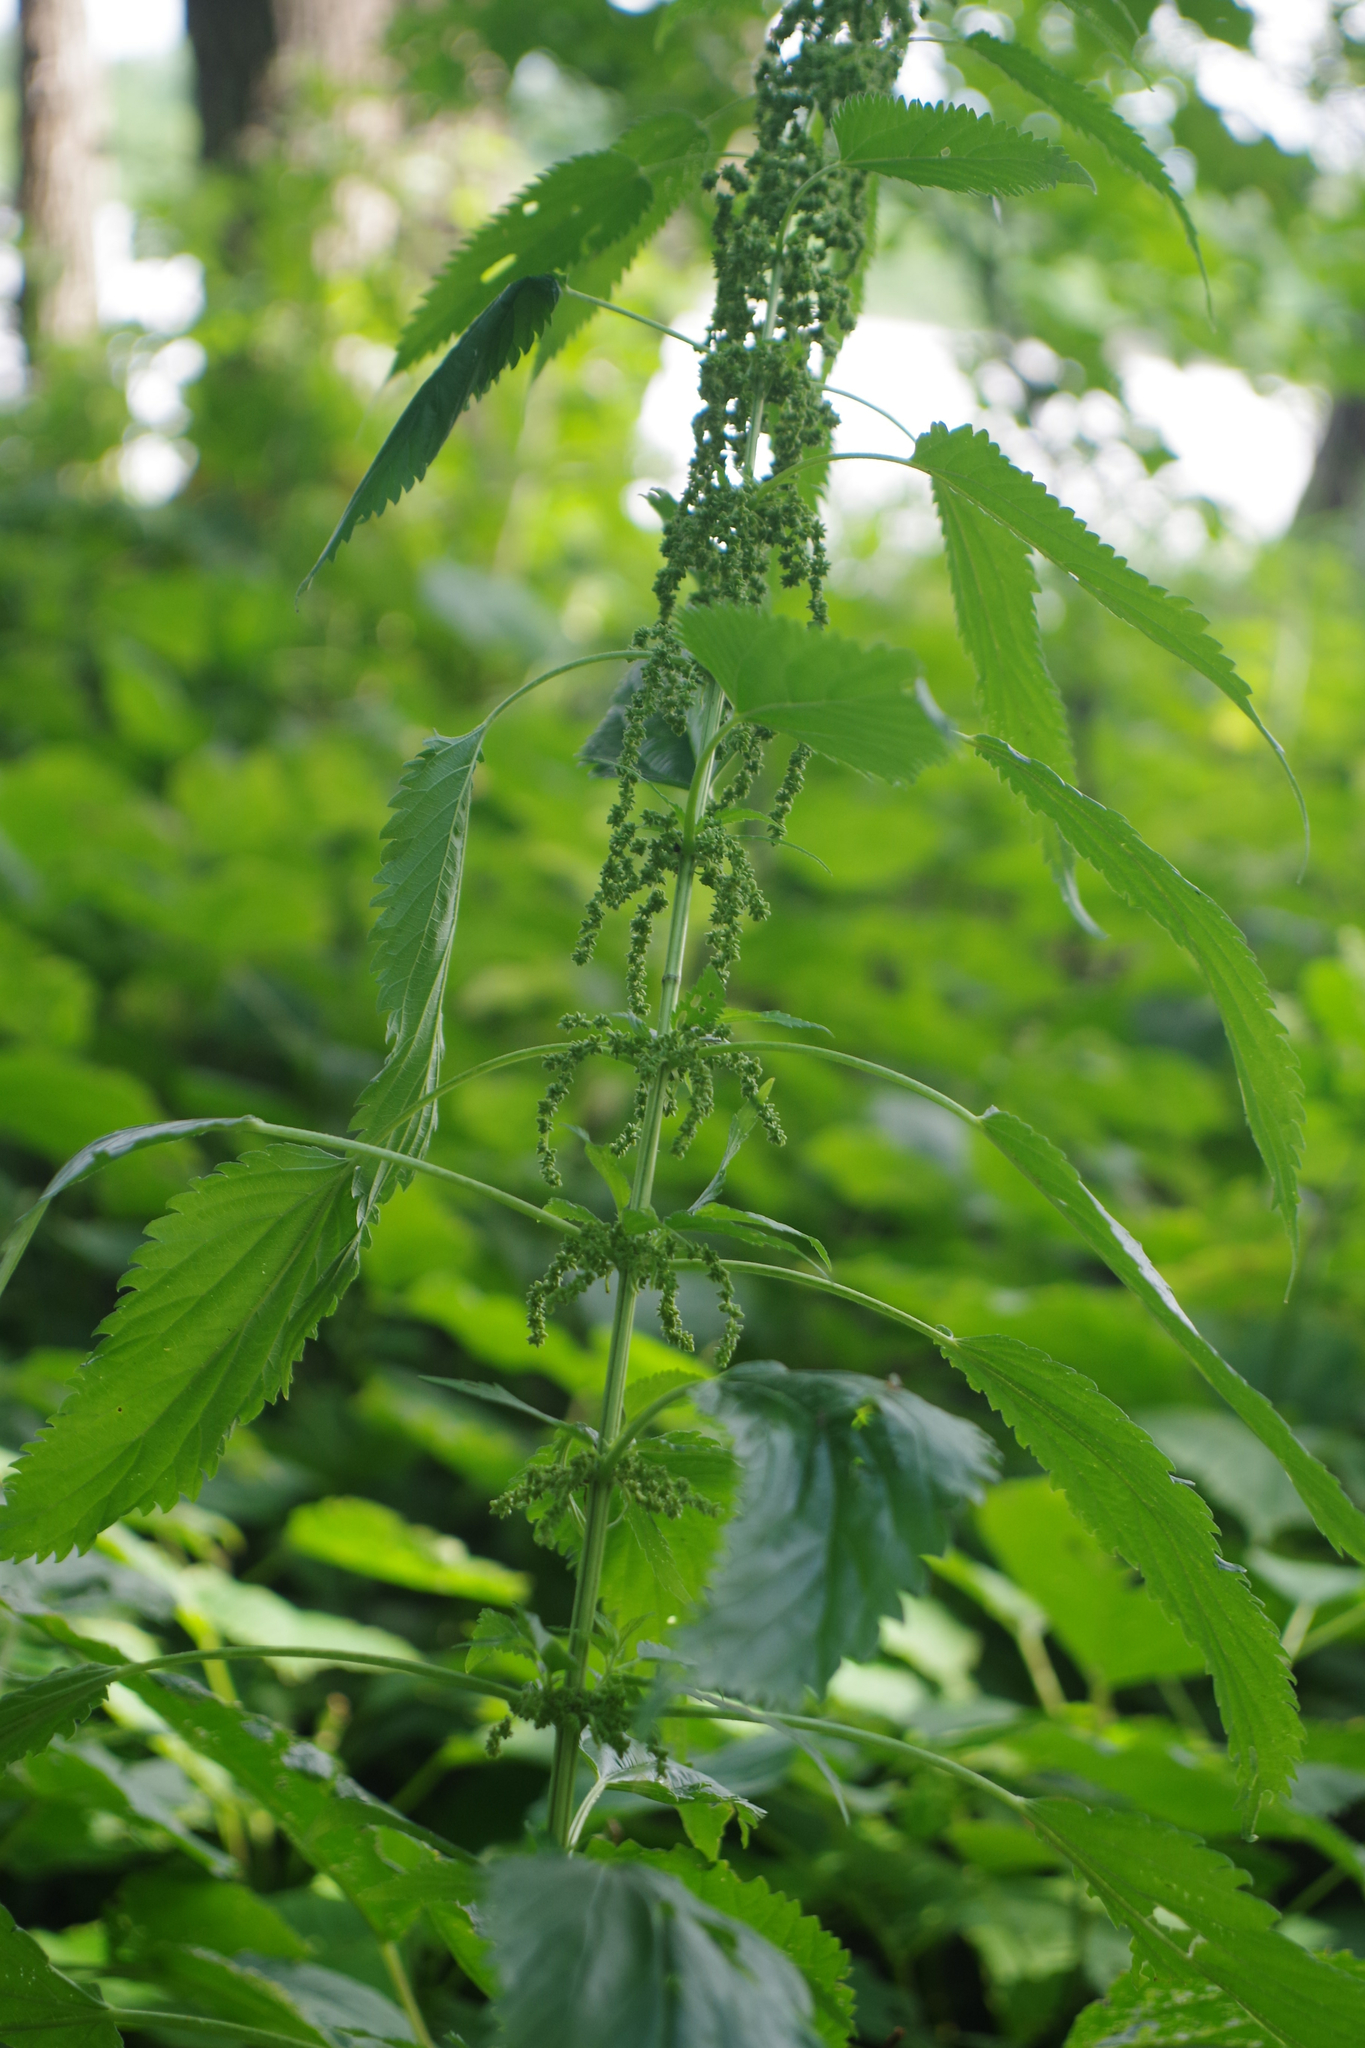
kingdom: Plantae
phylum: Tracheophyta
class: Magnoliopsida
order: Rosales
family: Urticaceae
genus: Urtica
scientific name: Urtica gracilis
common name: Slender stinging nettle
